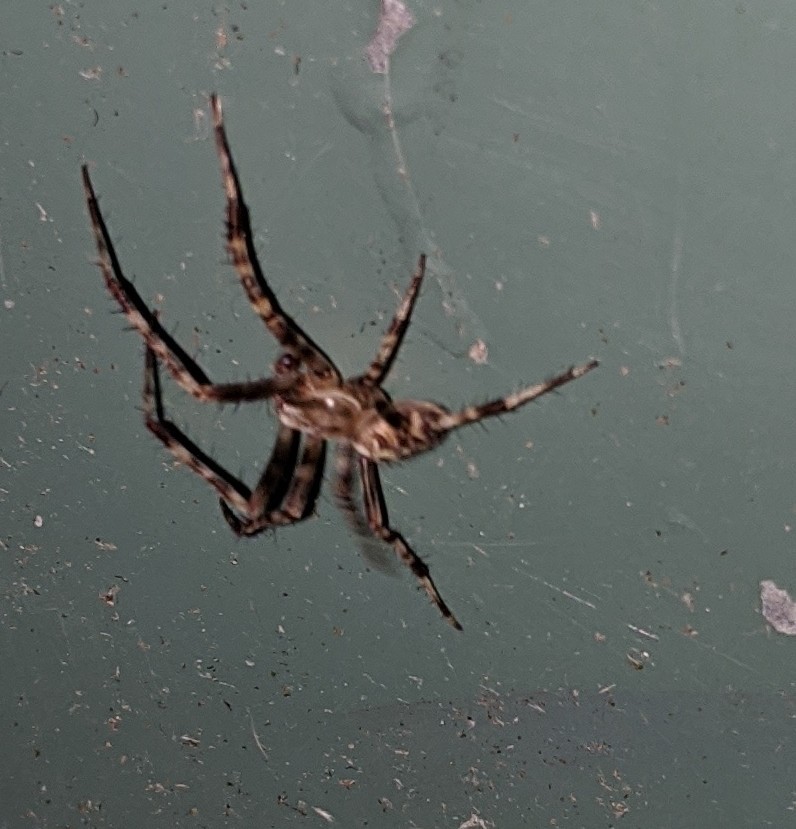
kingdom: Animalia
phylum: Arthropoda
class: Arachnida
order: Araneae
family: Araneidae
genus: Araneus
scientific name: Araneus diadematus
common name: Cross orbweaver
